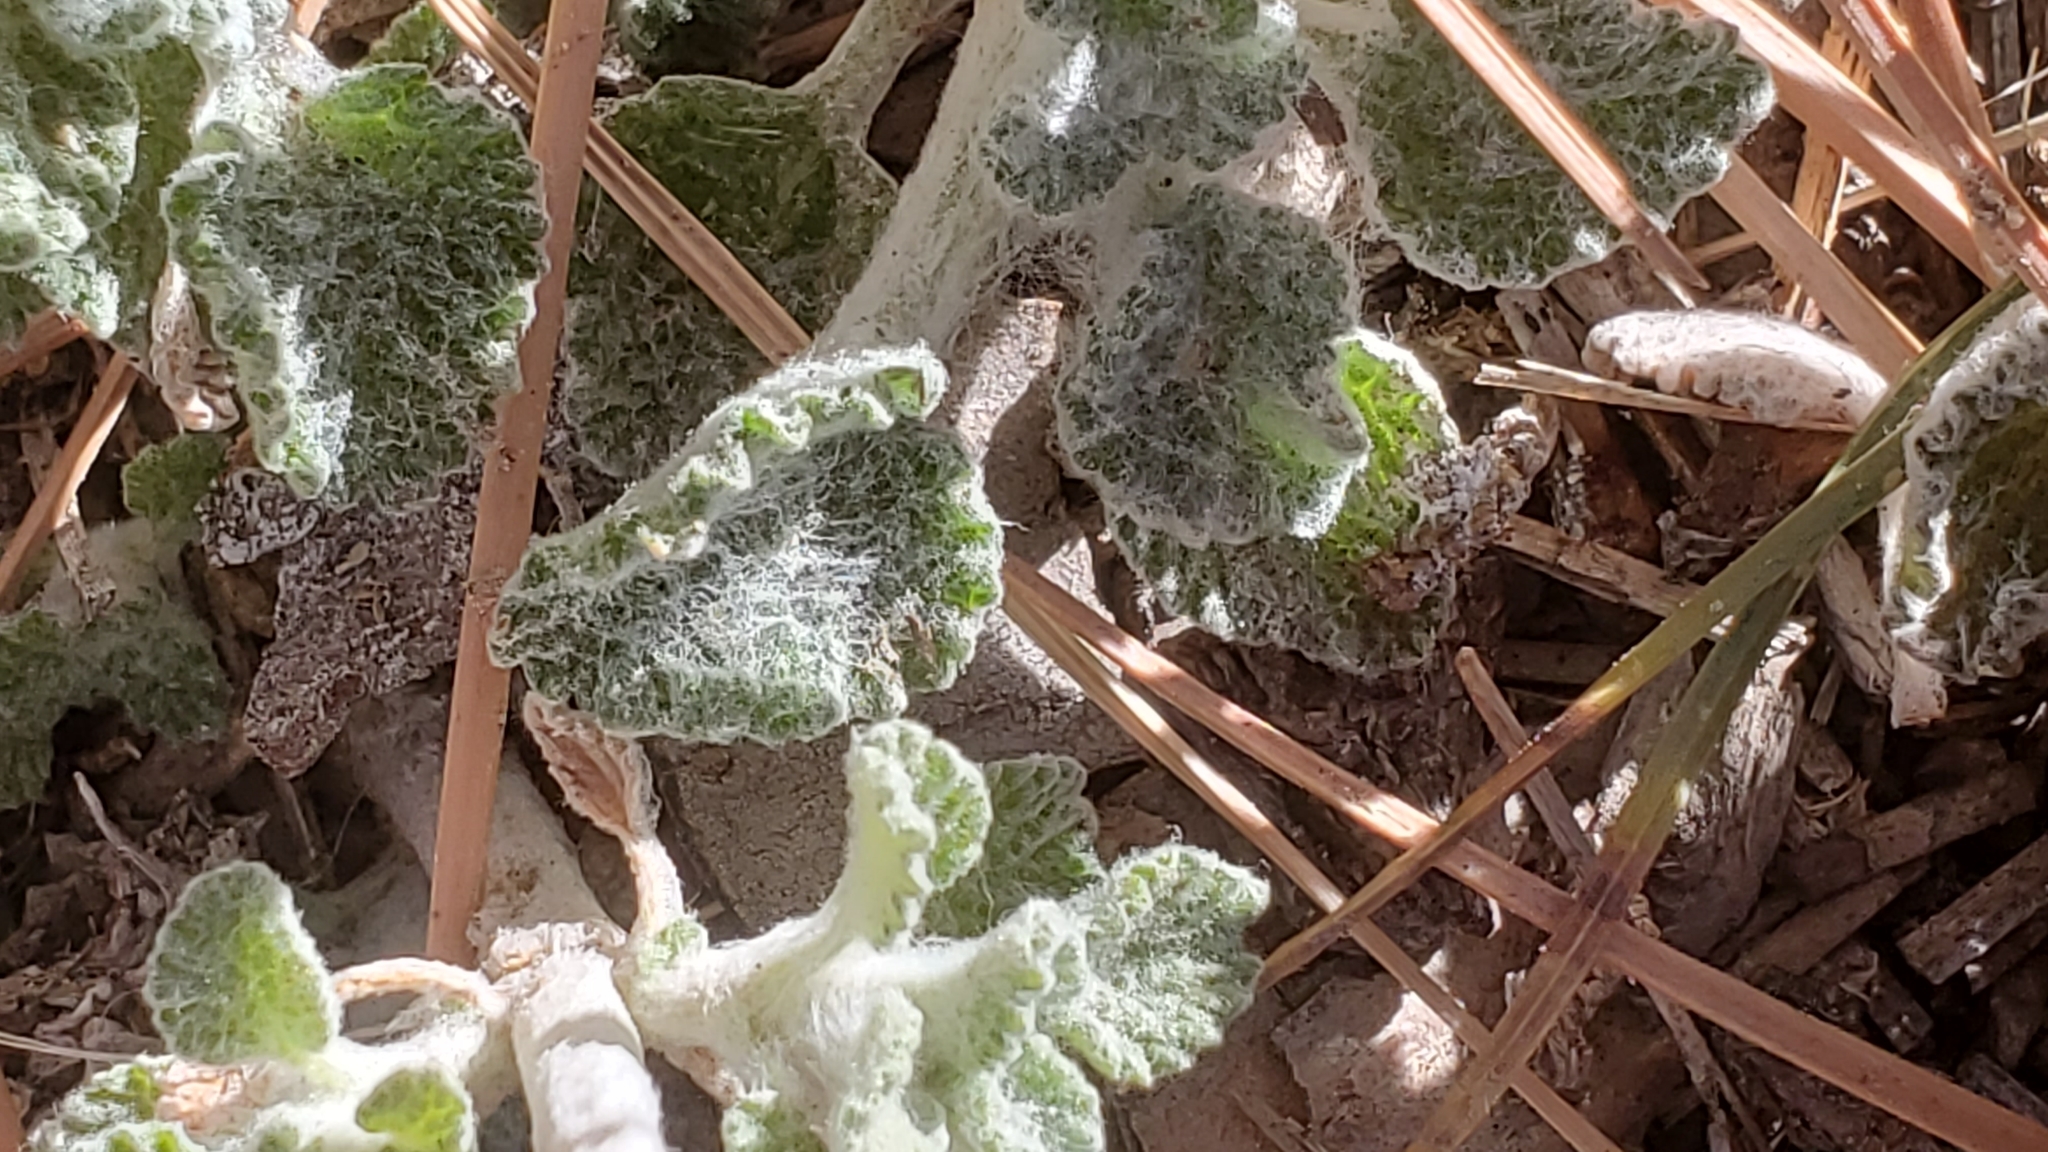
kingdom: Plantae
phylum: Tracheophyta
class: Magnoliopsida
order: Lamiales
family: Lamiaceae
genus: Marrubium
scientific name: Marrubium vulgare
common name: Horehound
